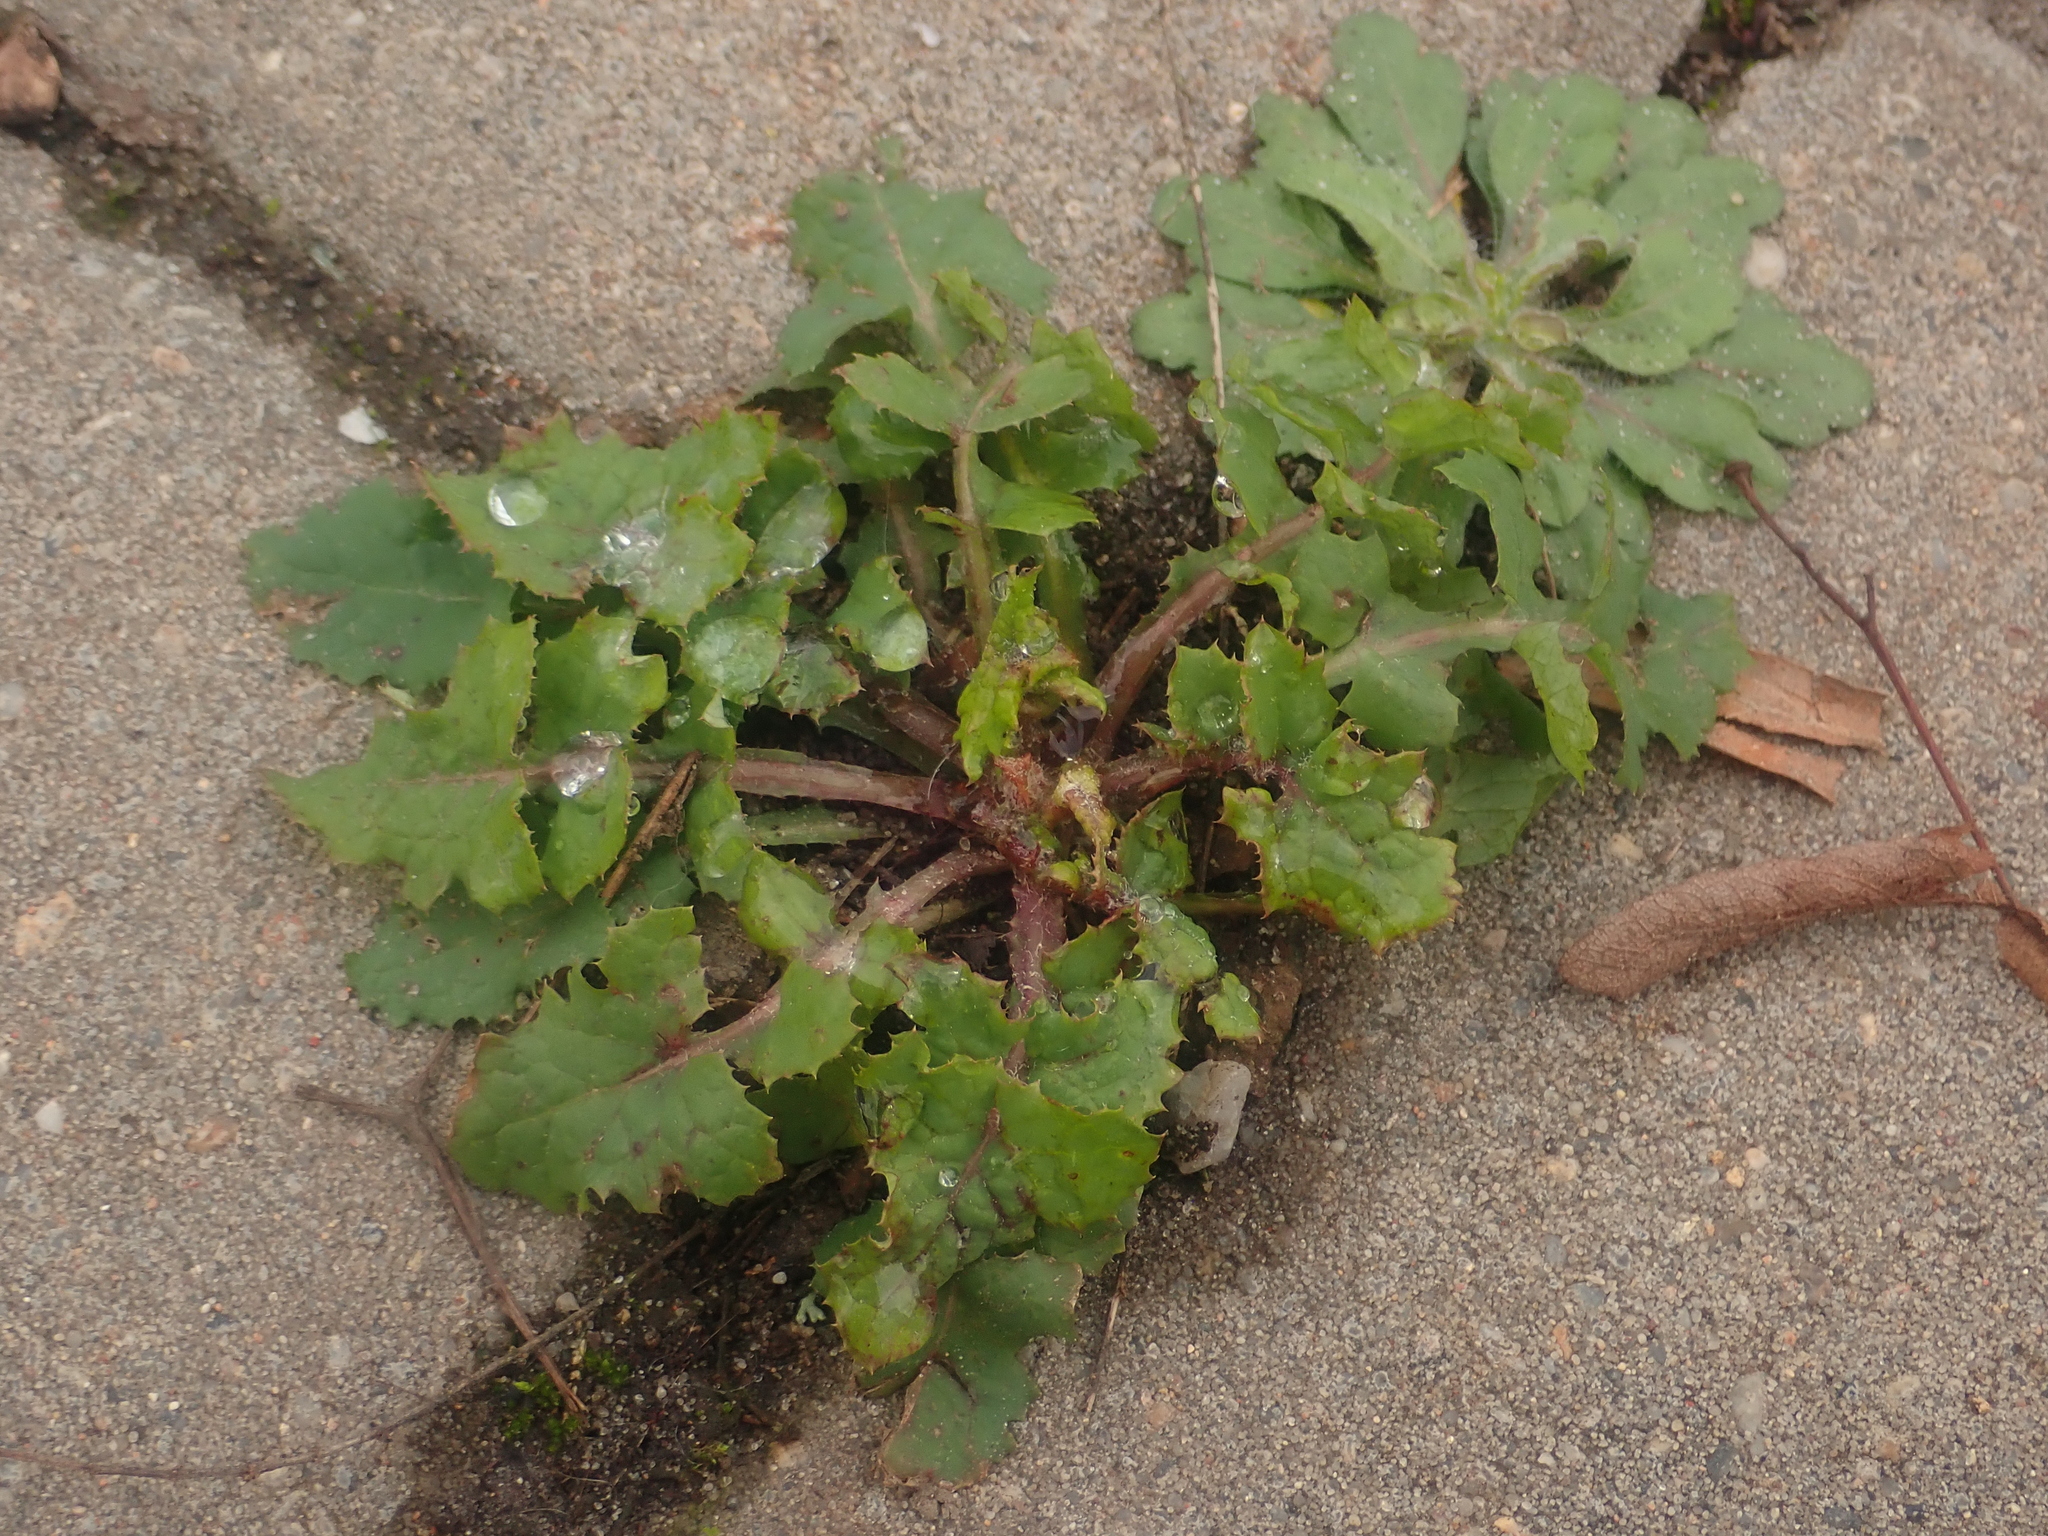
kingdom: Plantae
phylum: Tracheophyta
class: Magnoliopsida
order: Asterales
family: Asteraceae
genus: Sonchus
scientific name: Sonchus oleraceus
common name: Common sowthistle
